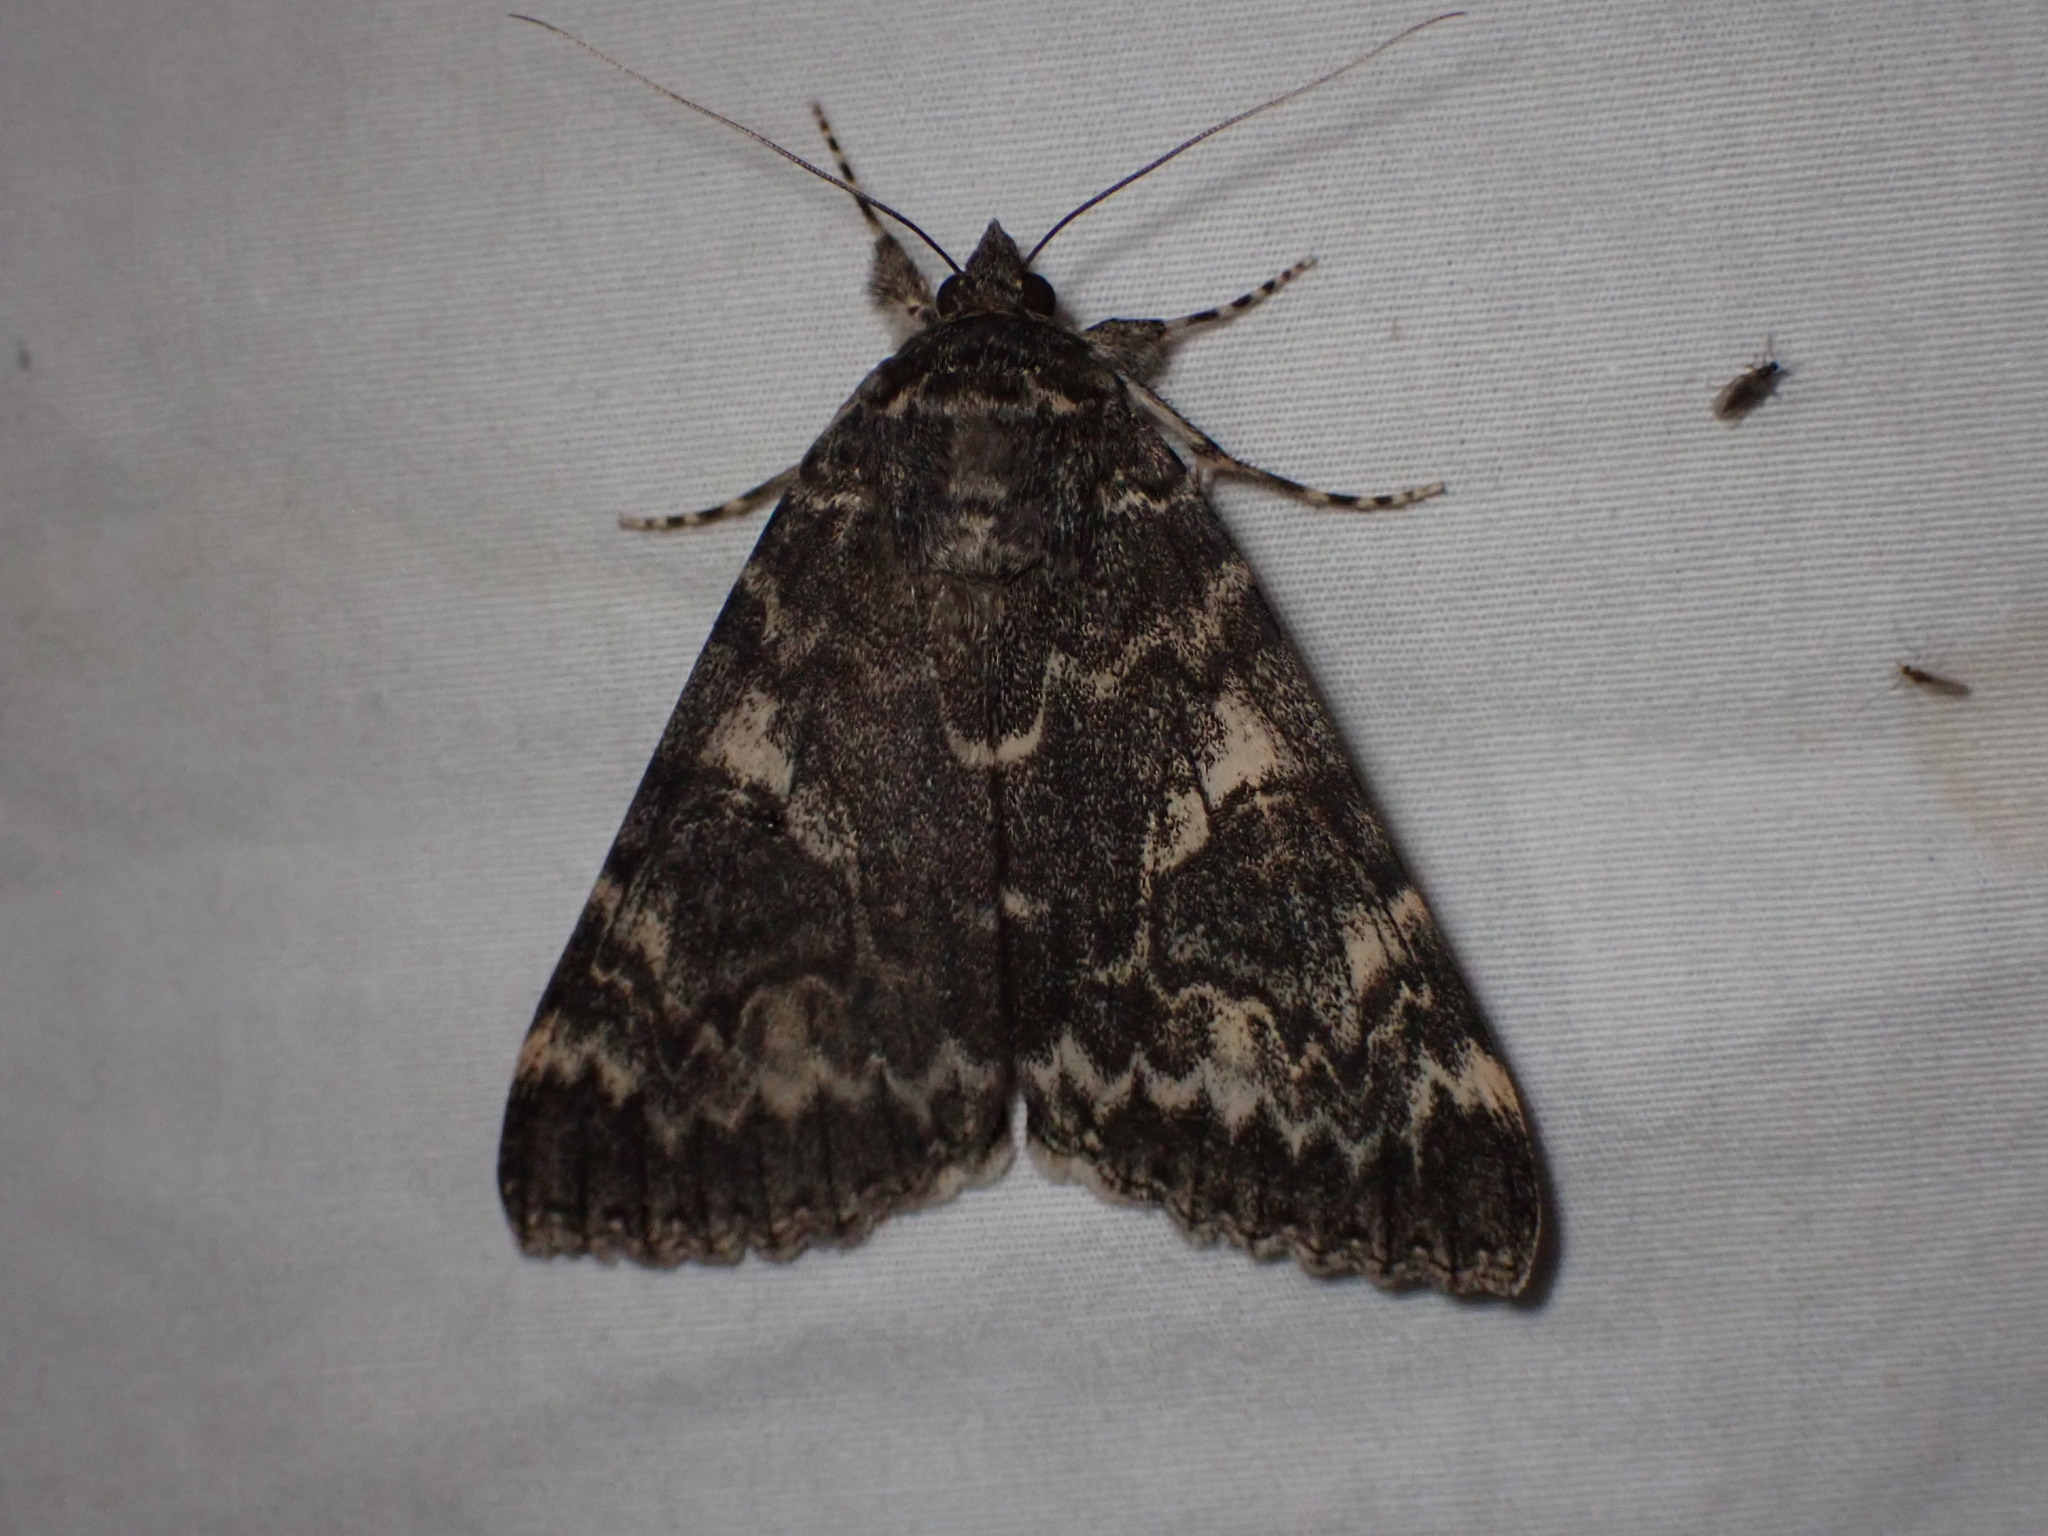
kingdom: Animalia
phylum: Arthropoda
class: Insecta
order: Lepidoptera
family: Erebidae
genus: Catocala
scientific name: Catocala californica
